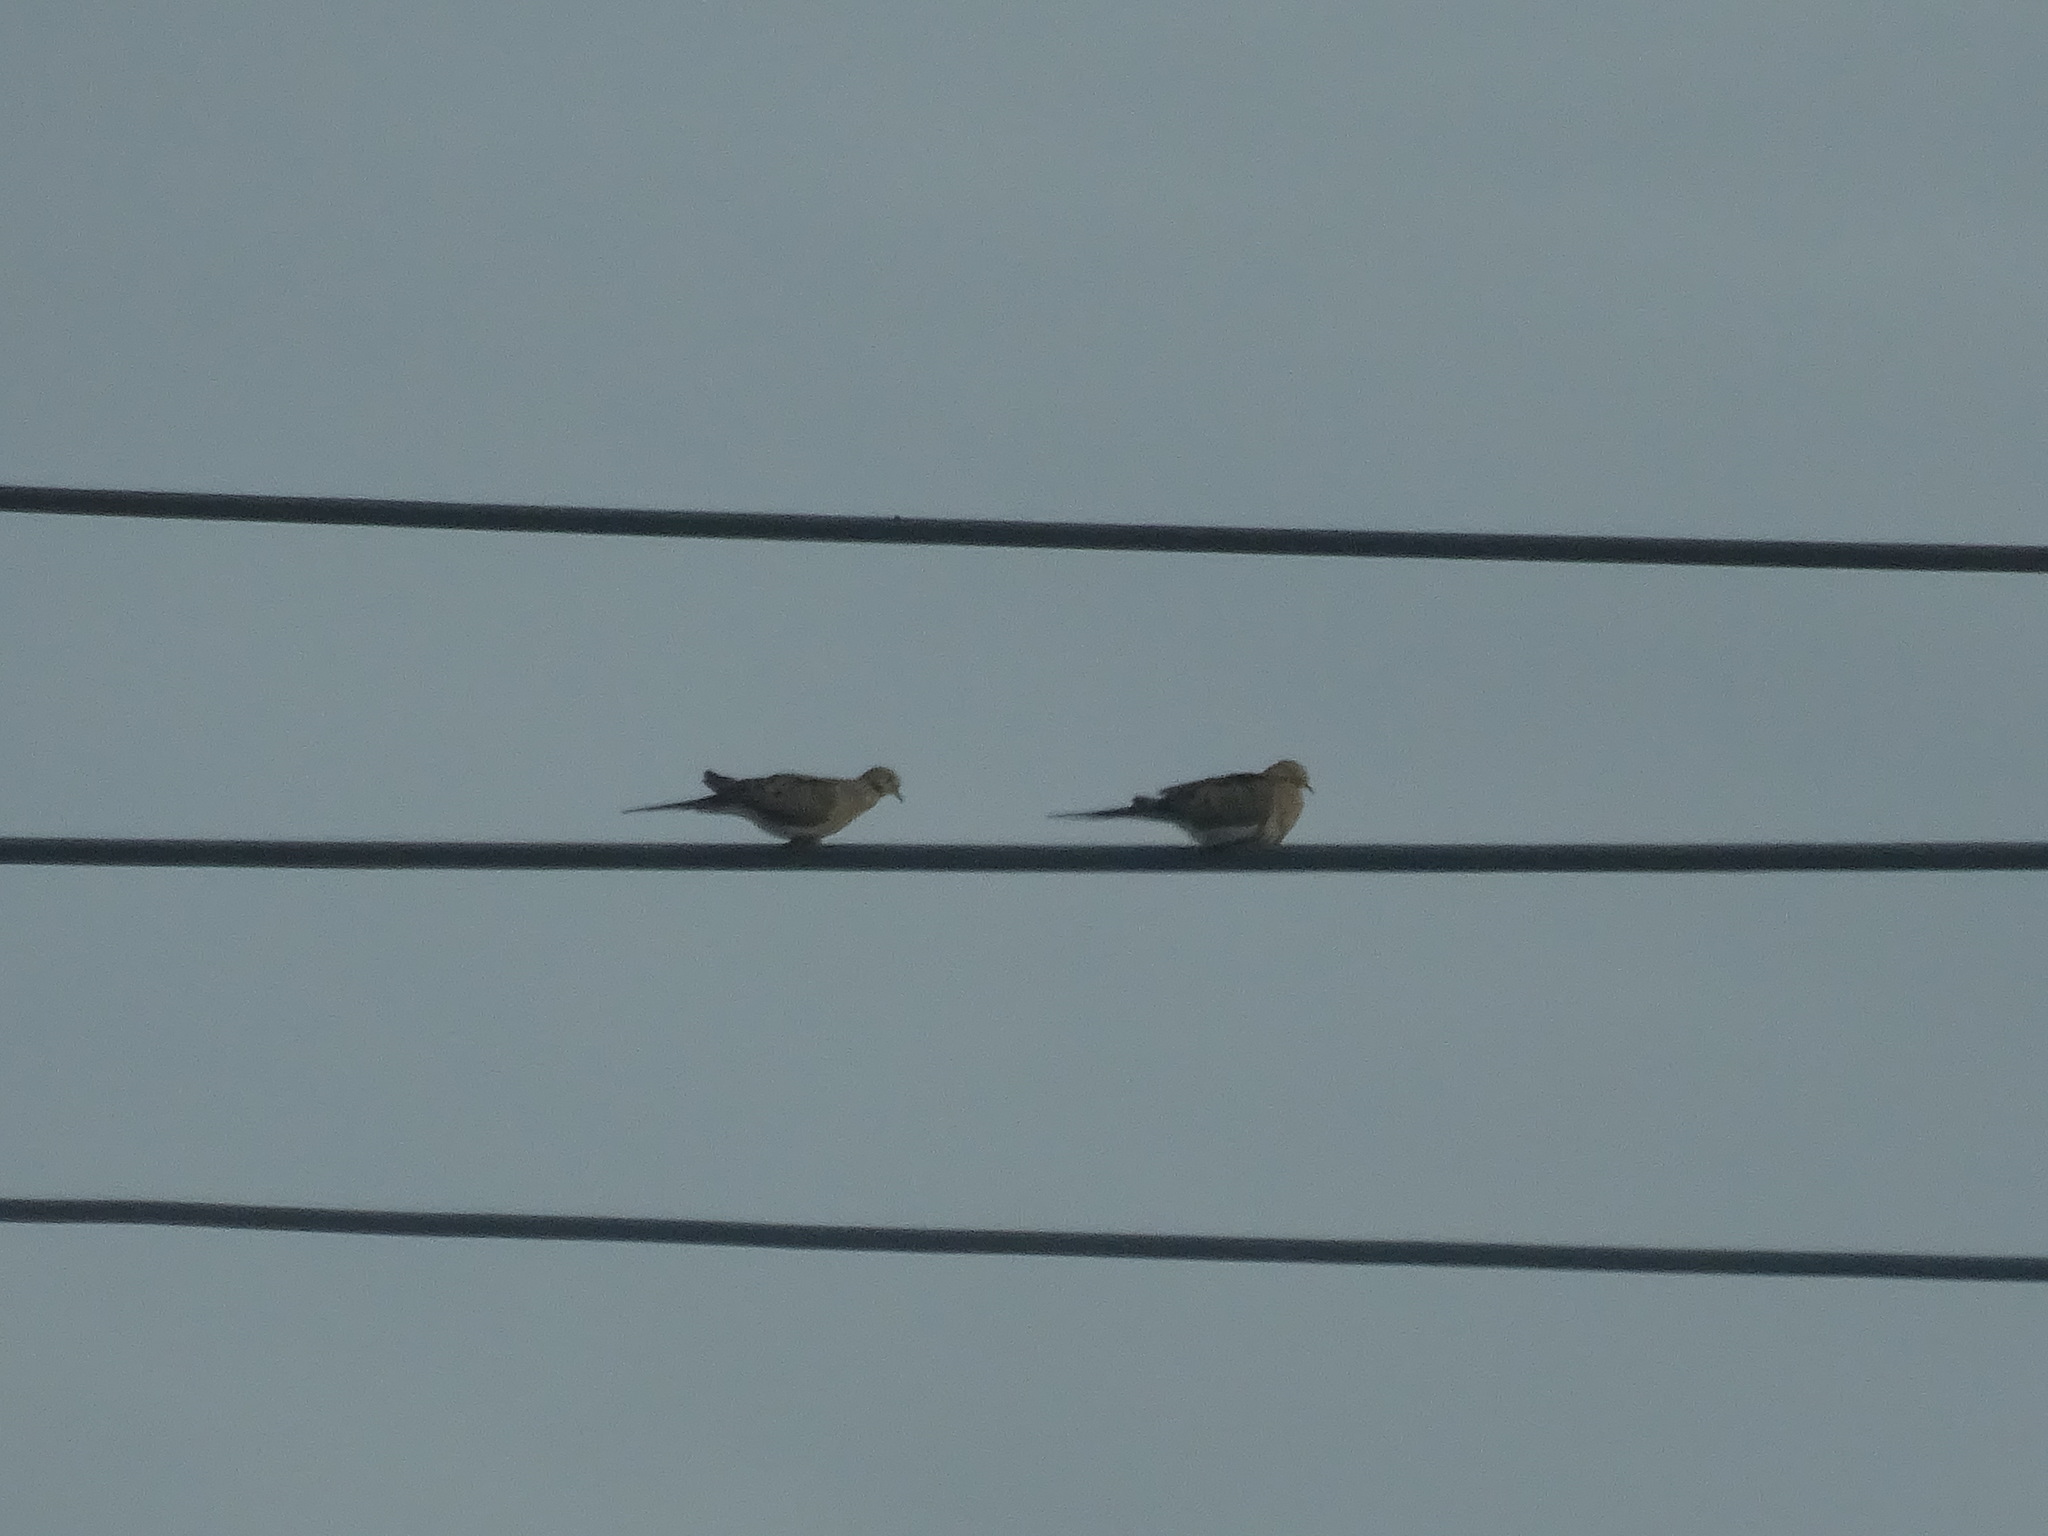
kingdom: Animalia
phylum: Chordata
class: Aves
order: Columbiformes
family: Columbidae
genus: Streptopelia
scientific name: Streptopelia decaocto
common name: Eurasian collared dove
